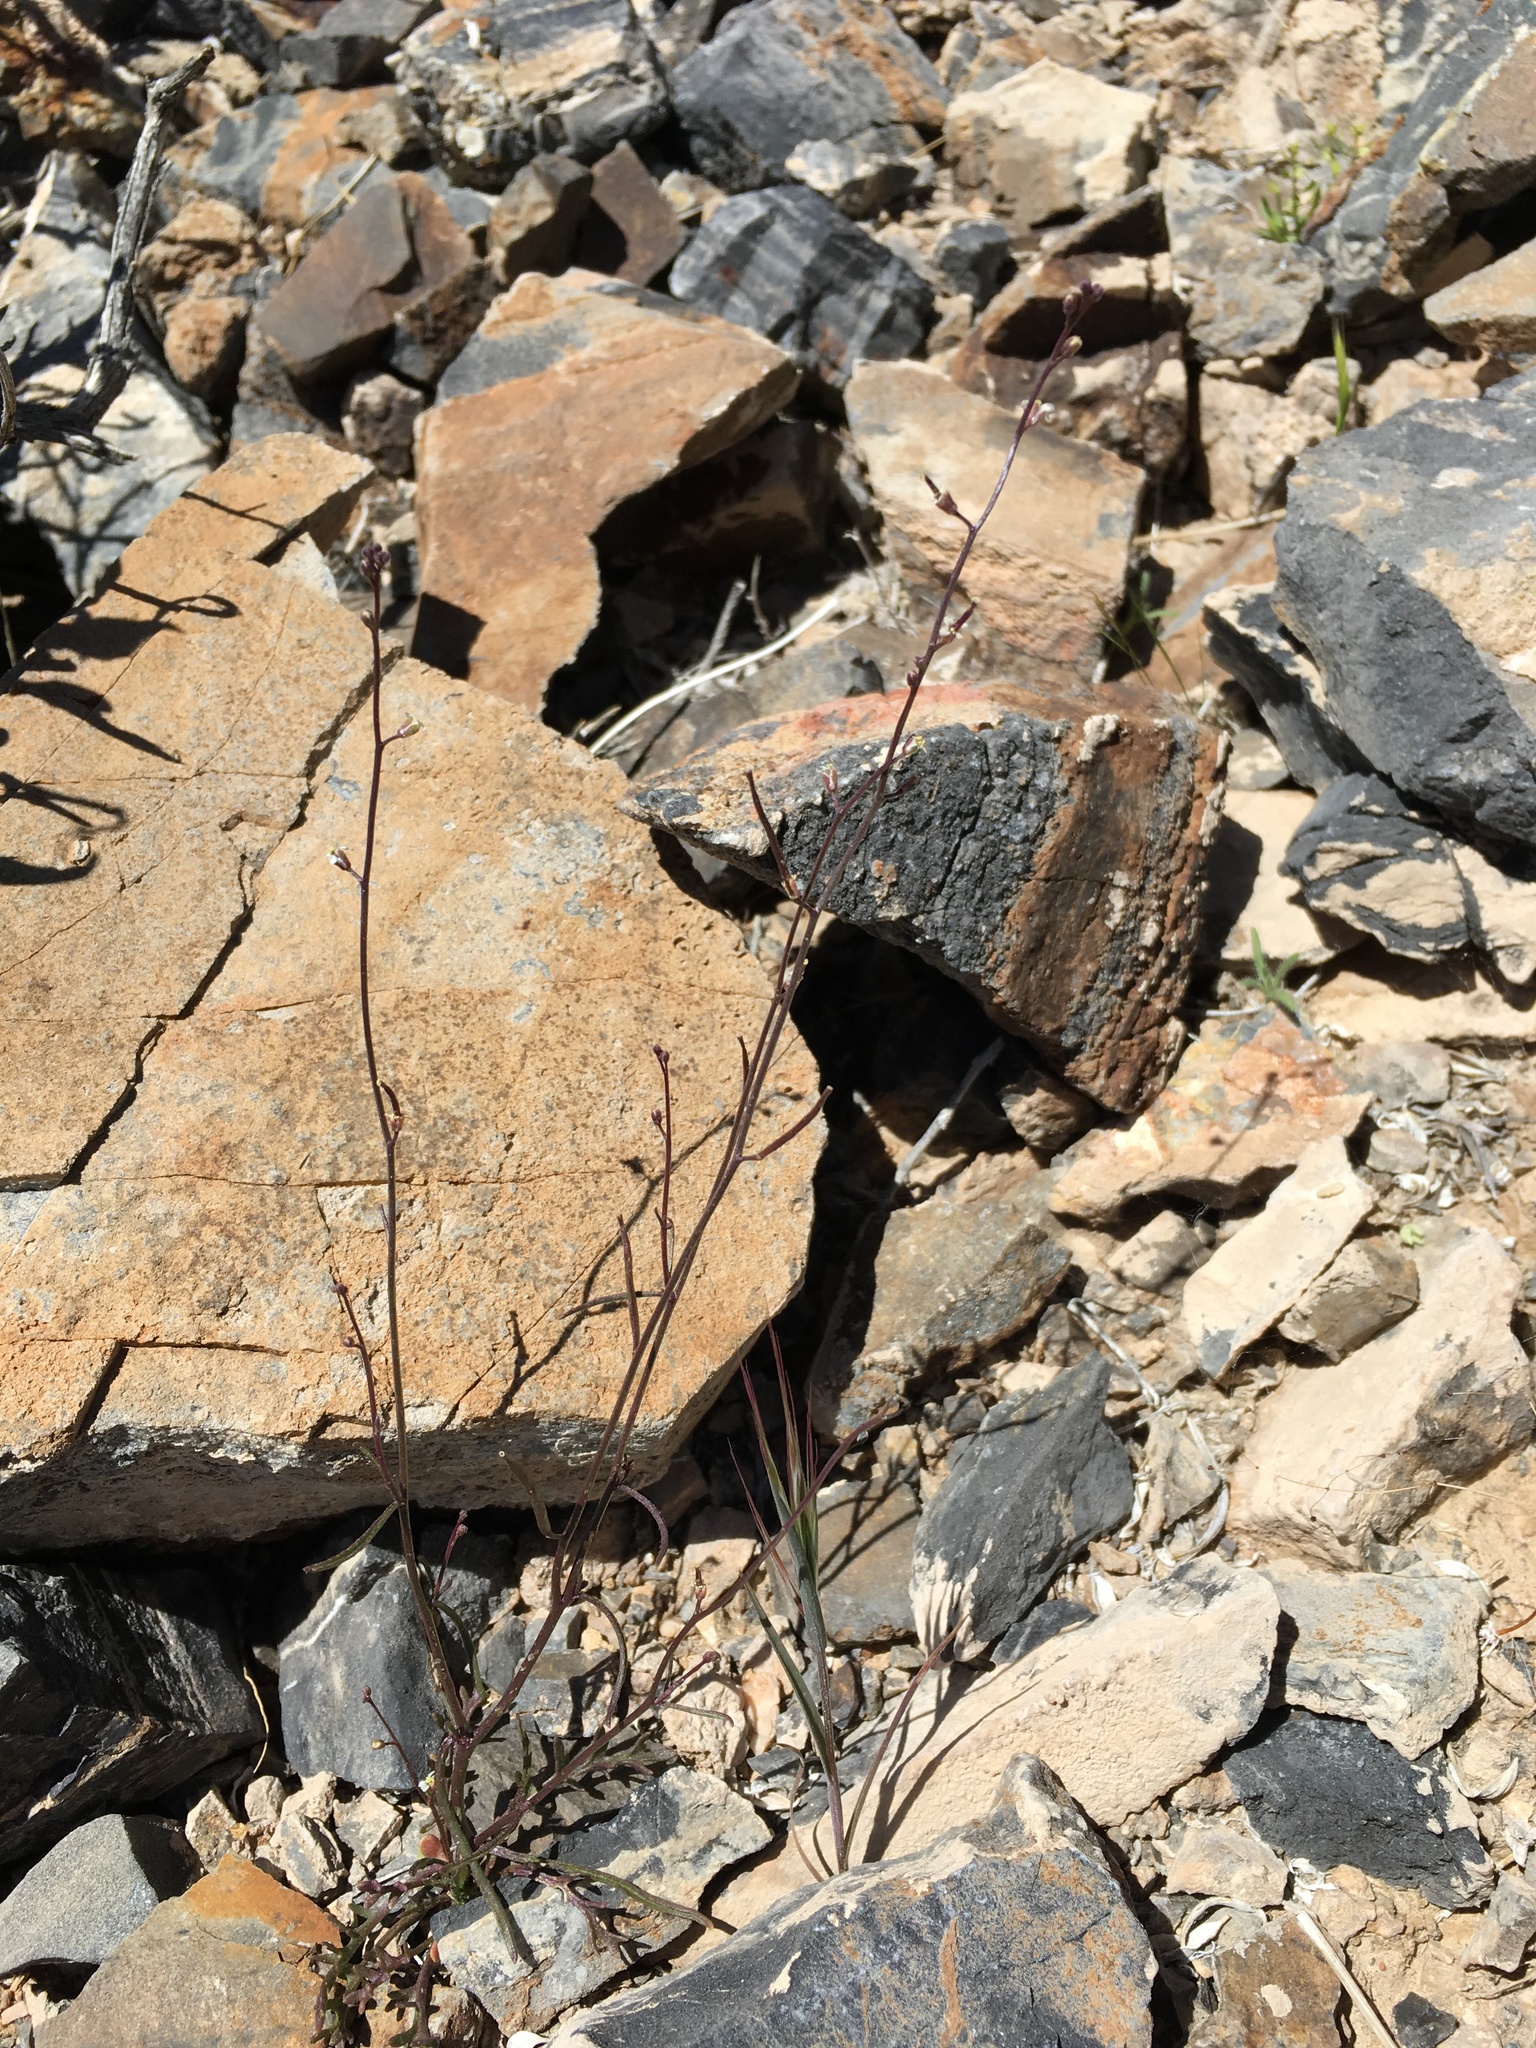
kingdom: Plantae
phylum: Tracheophyta
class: Magnoliopsida
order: Brassicales
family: Brassicaceae
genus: Sibara
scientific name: Sibara deserti
